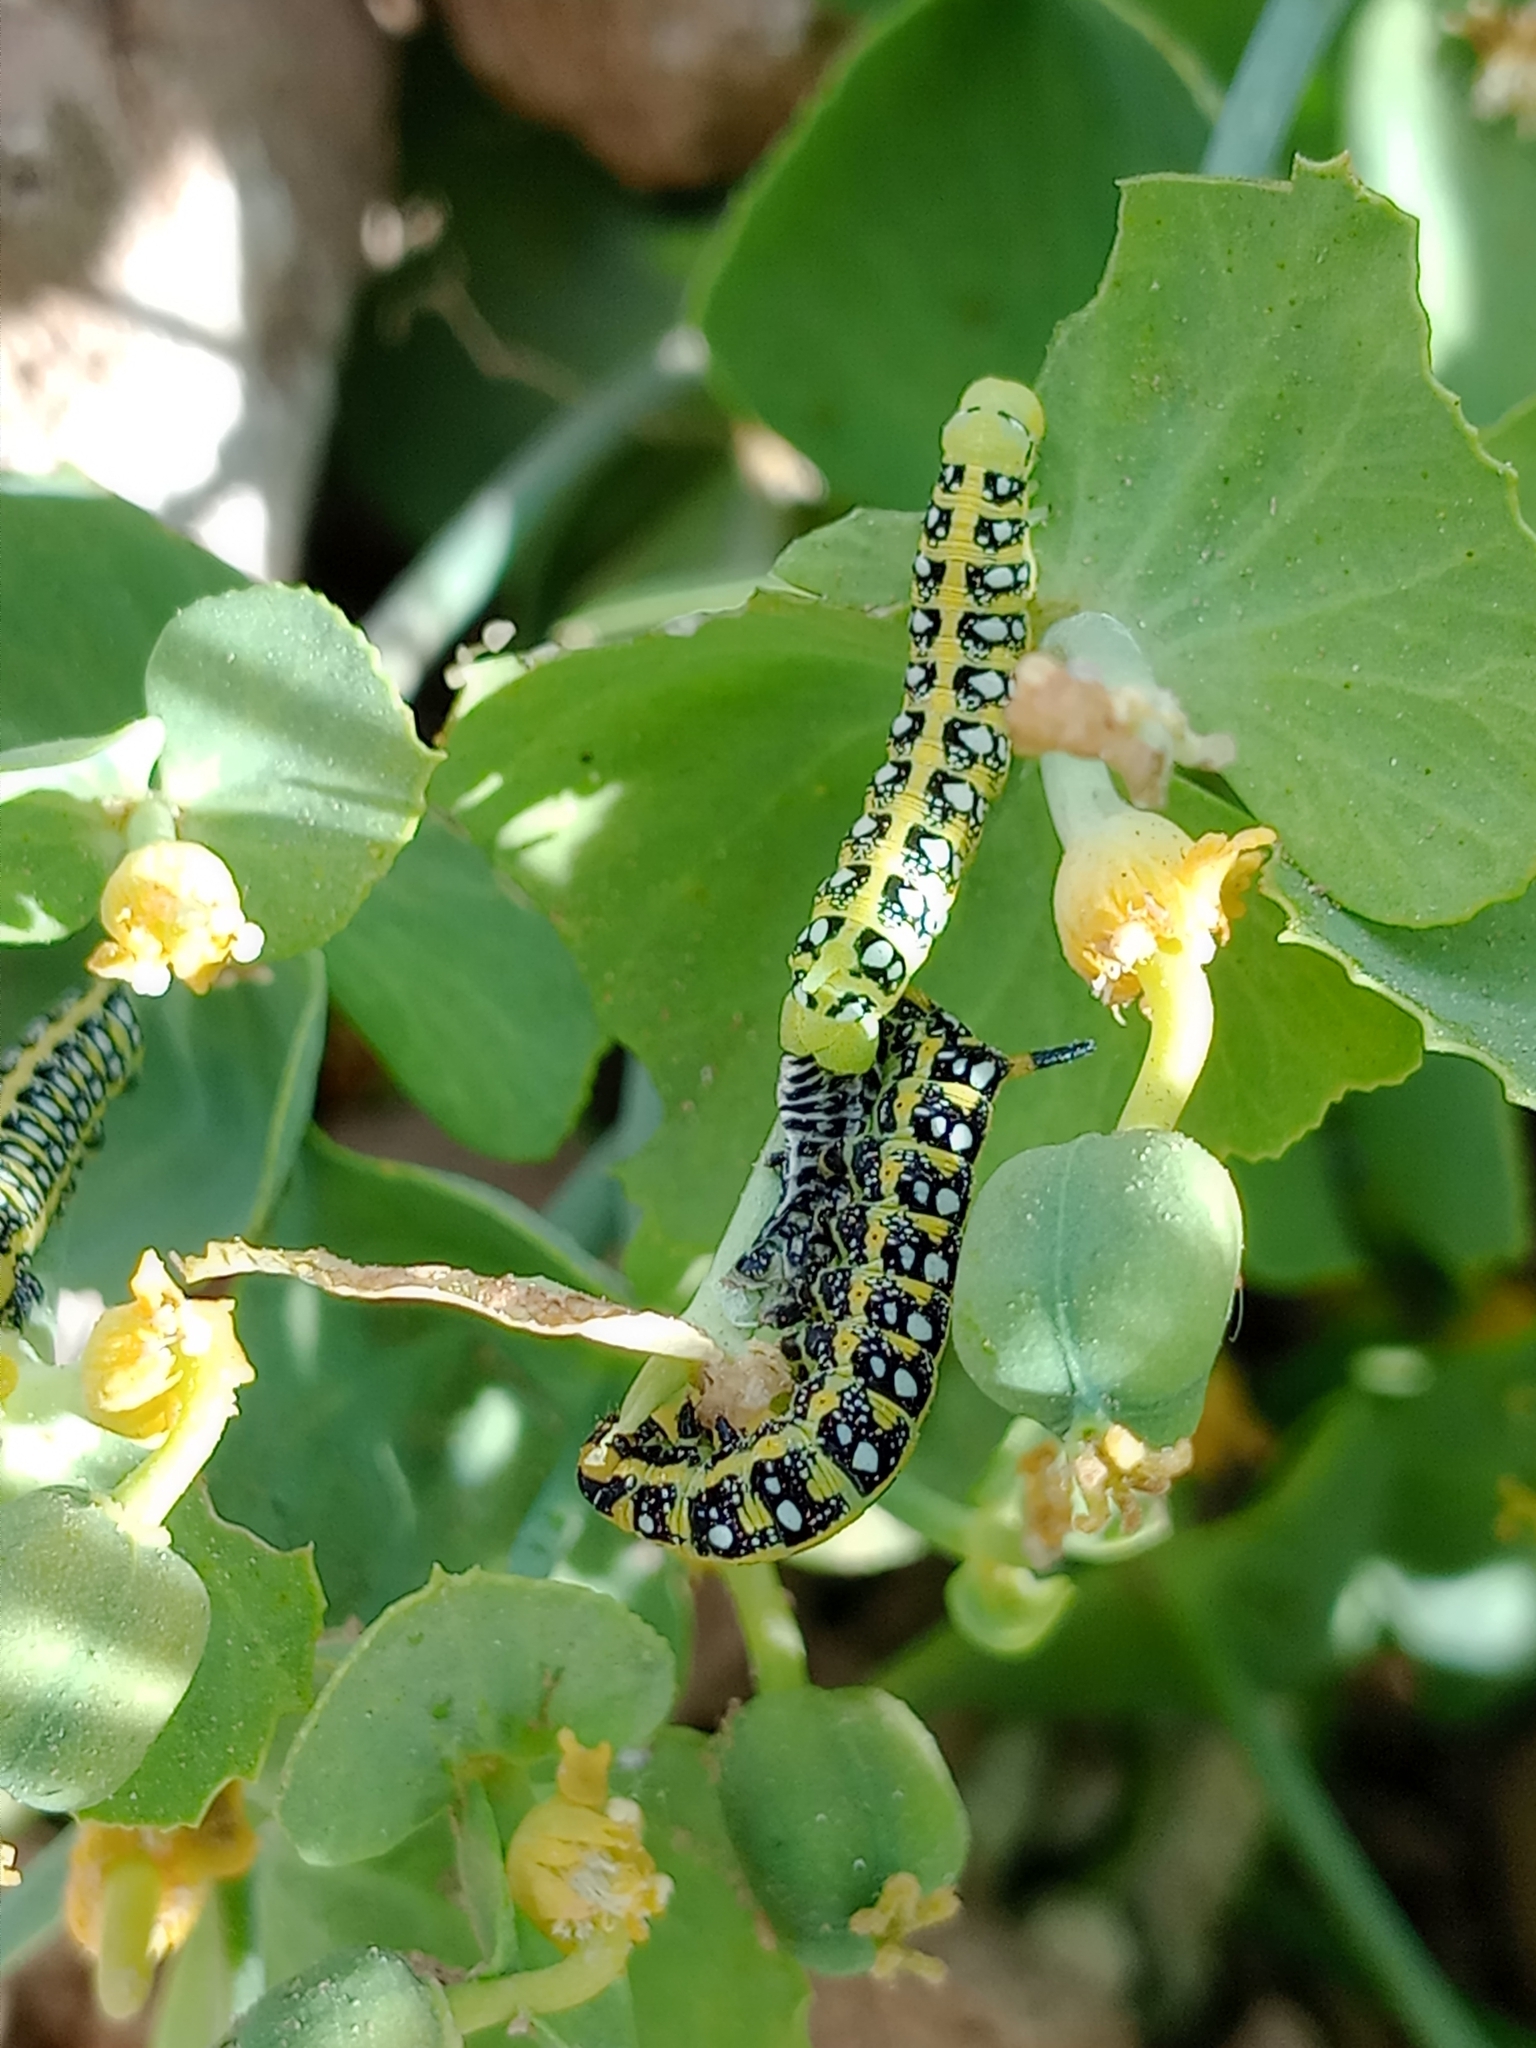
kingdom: Animalia
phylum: Arthropoda
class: Insecta
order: Lepidoptera
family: Sphingidae
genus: Hyles
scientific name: Hyles euphorbiae
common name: Spurge hawk-moth
